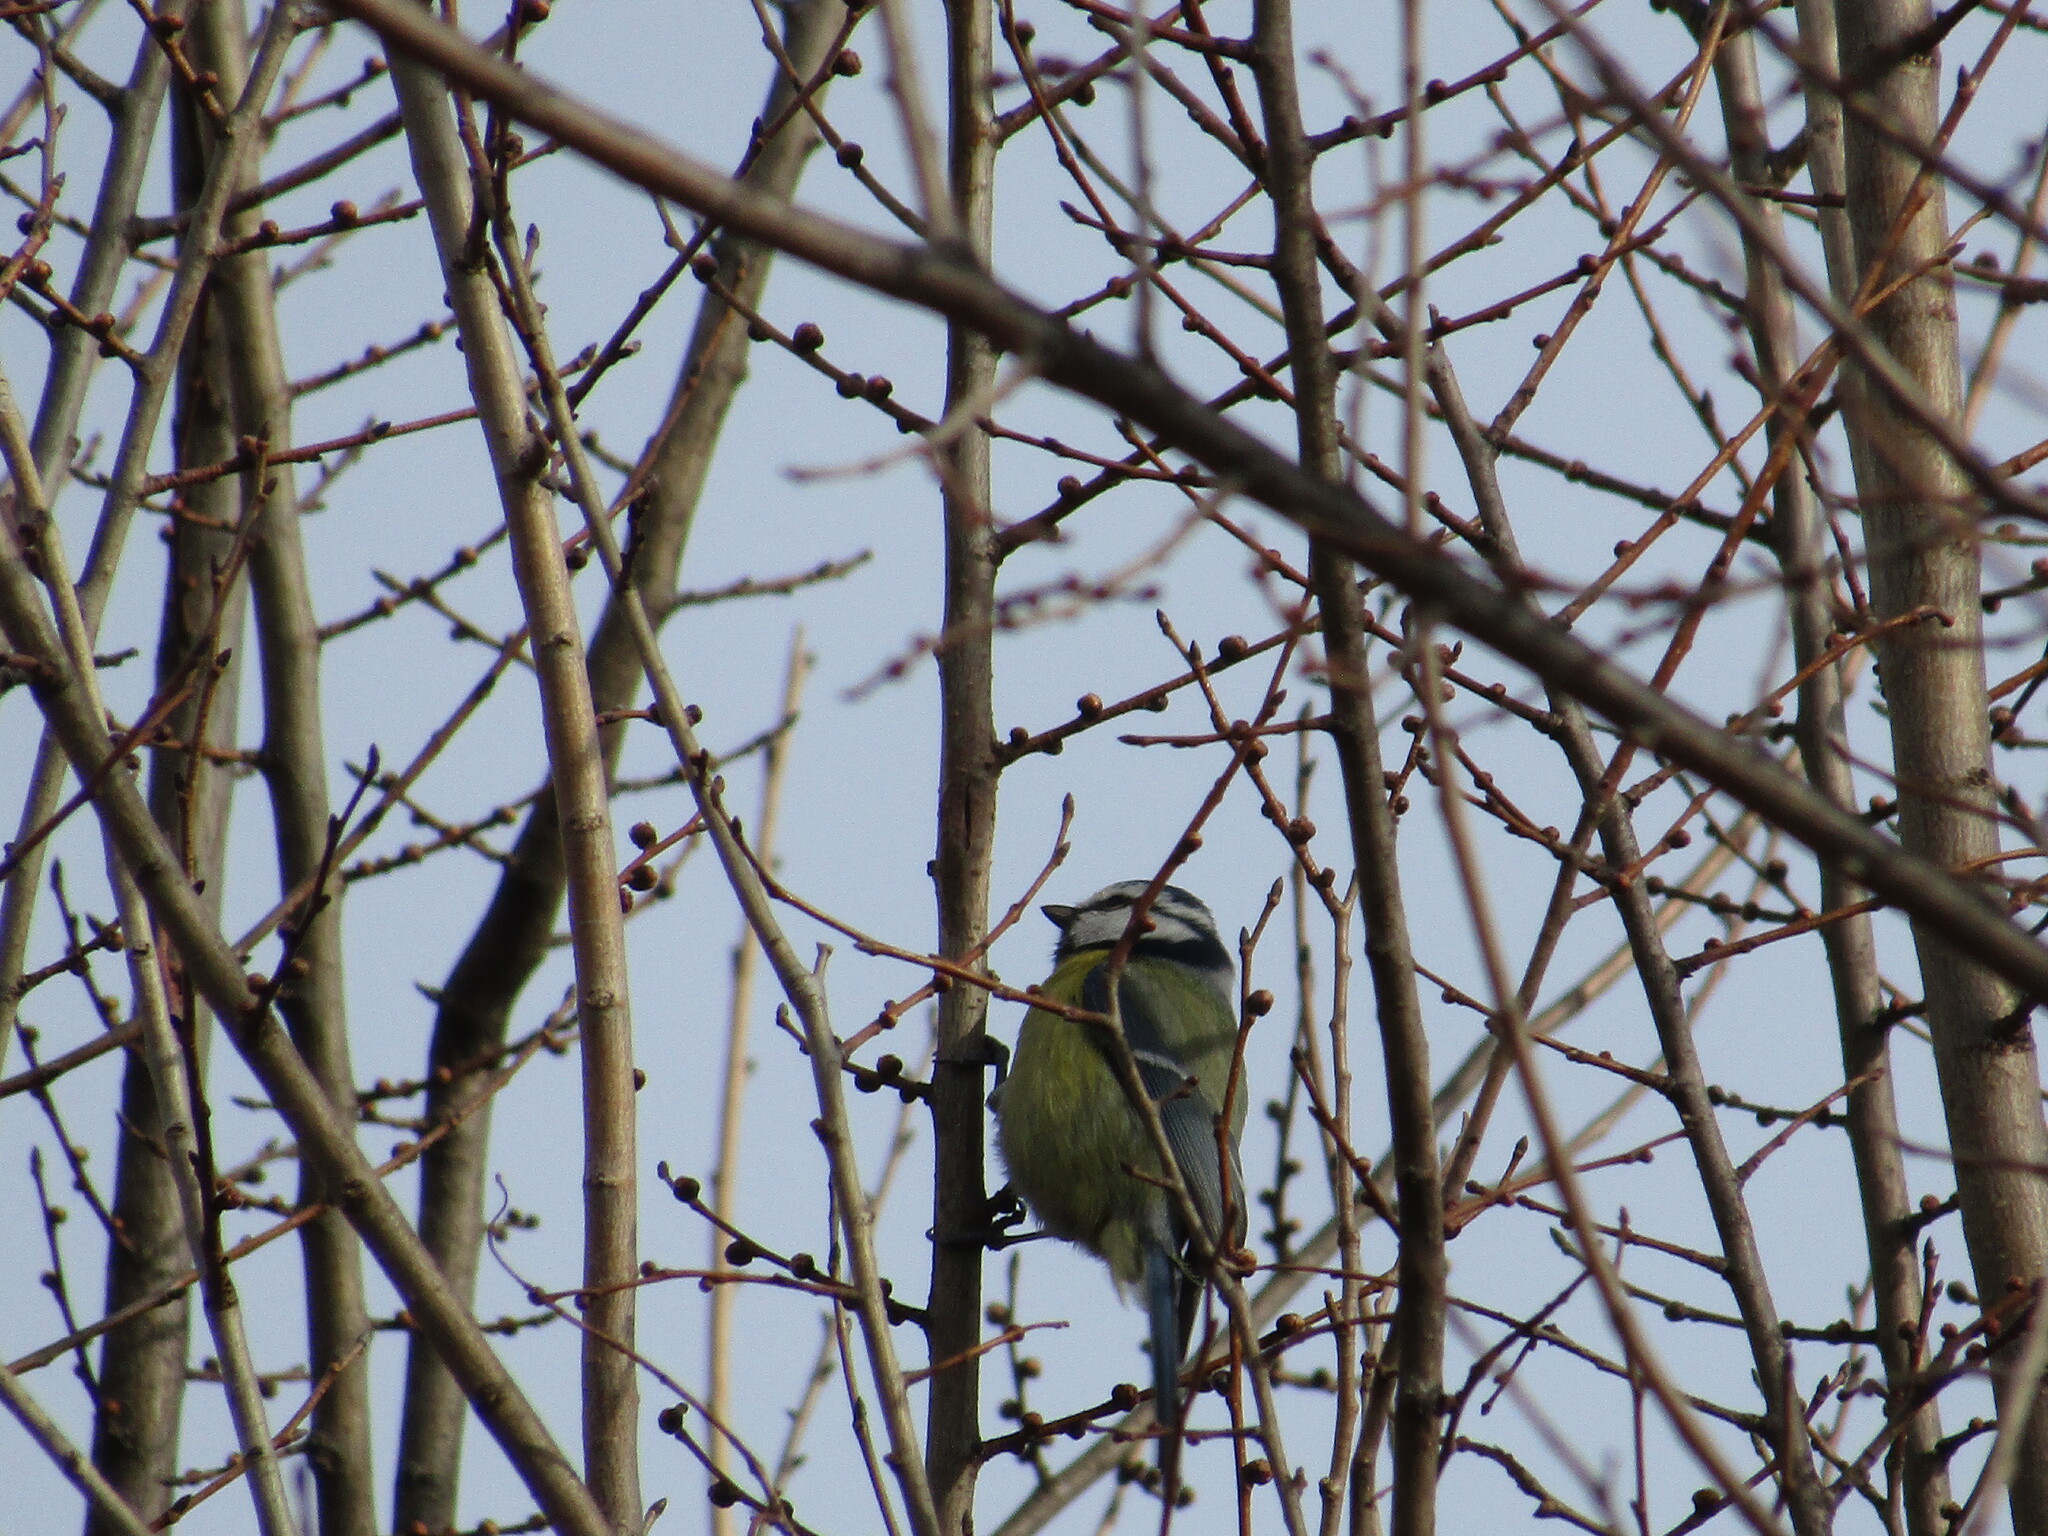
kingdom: Animalia
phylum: Chordata
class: Aves
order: Passeriformes
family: Paridae
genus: Cyanistes
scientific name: Cyanistes caeruleus
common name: Eurasian blue tit
